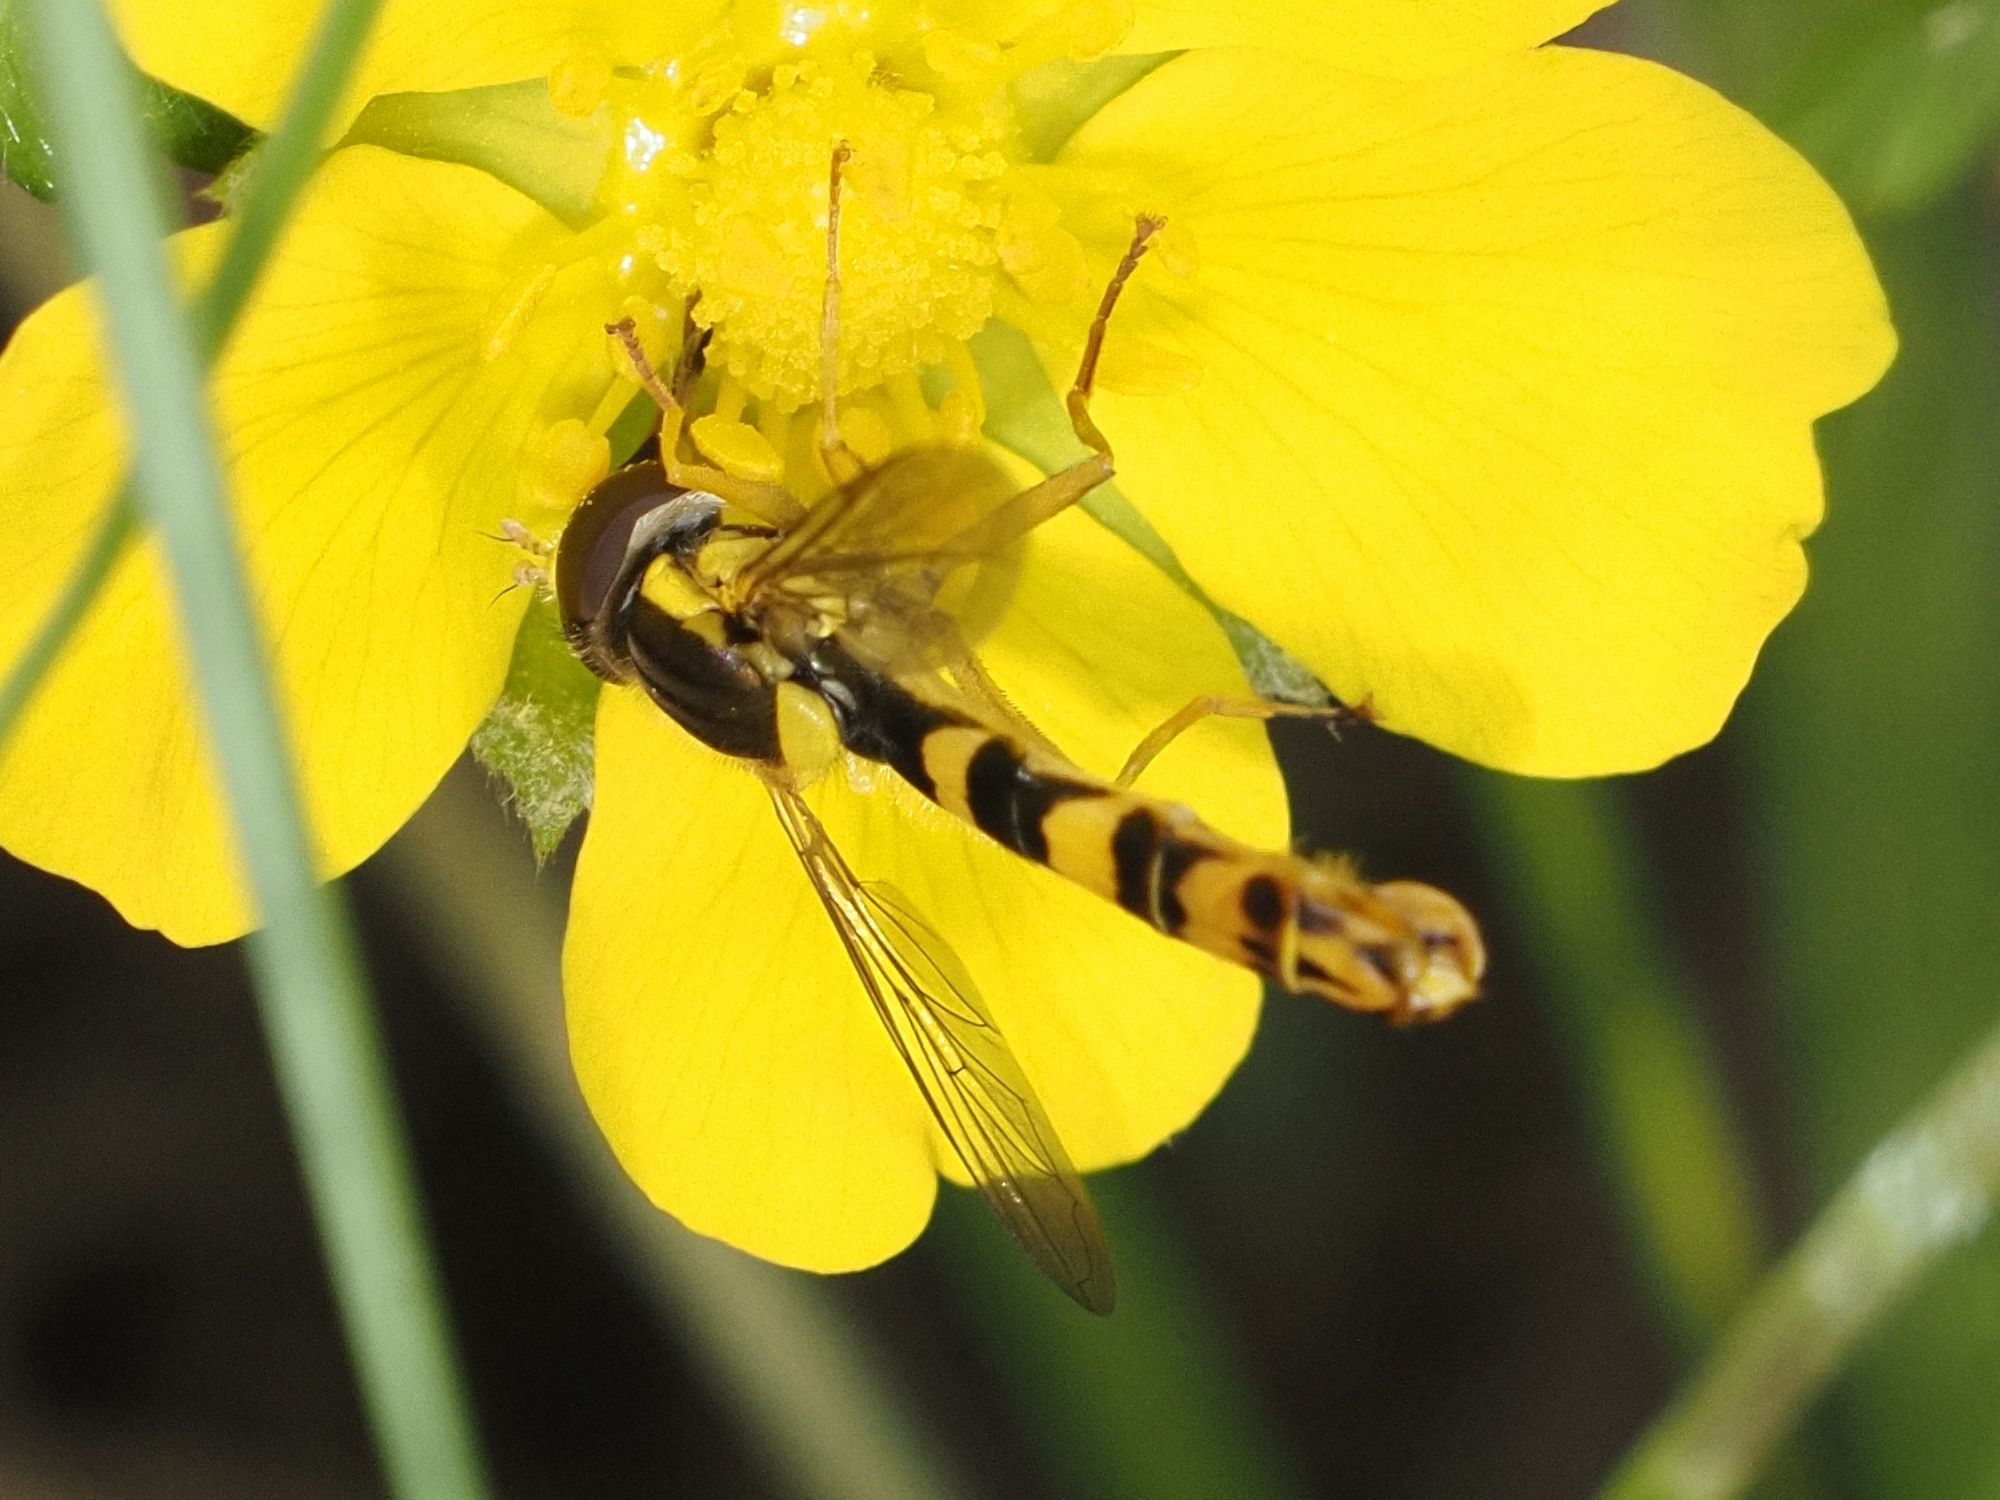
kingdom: Animalia
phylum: Arthropoda
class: Insecta
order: Diptera
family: Syrphidae
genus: Sphaerophoria
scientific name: Sphaerophoria scripta
